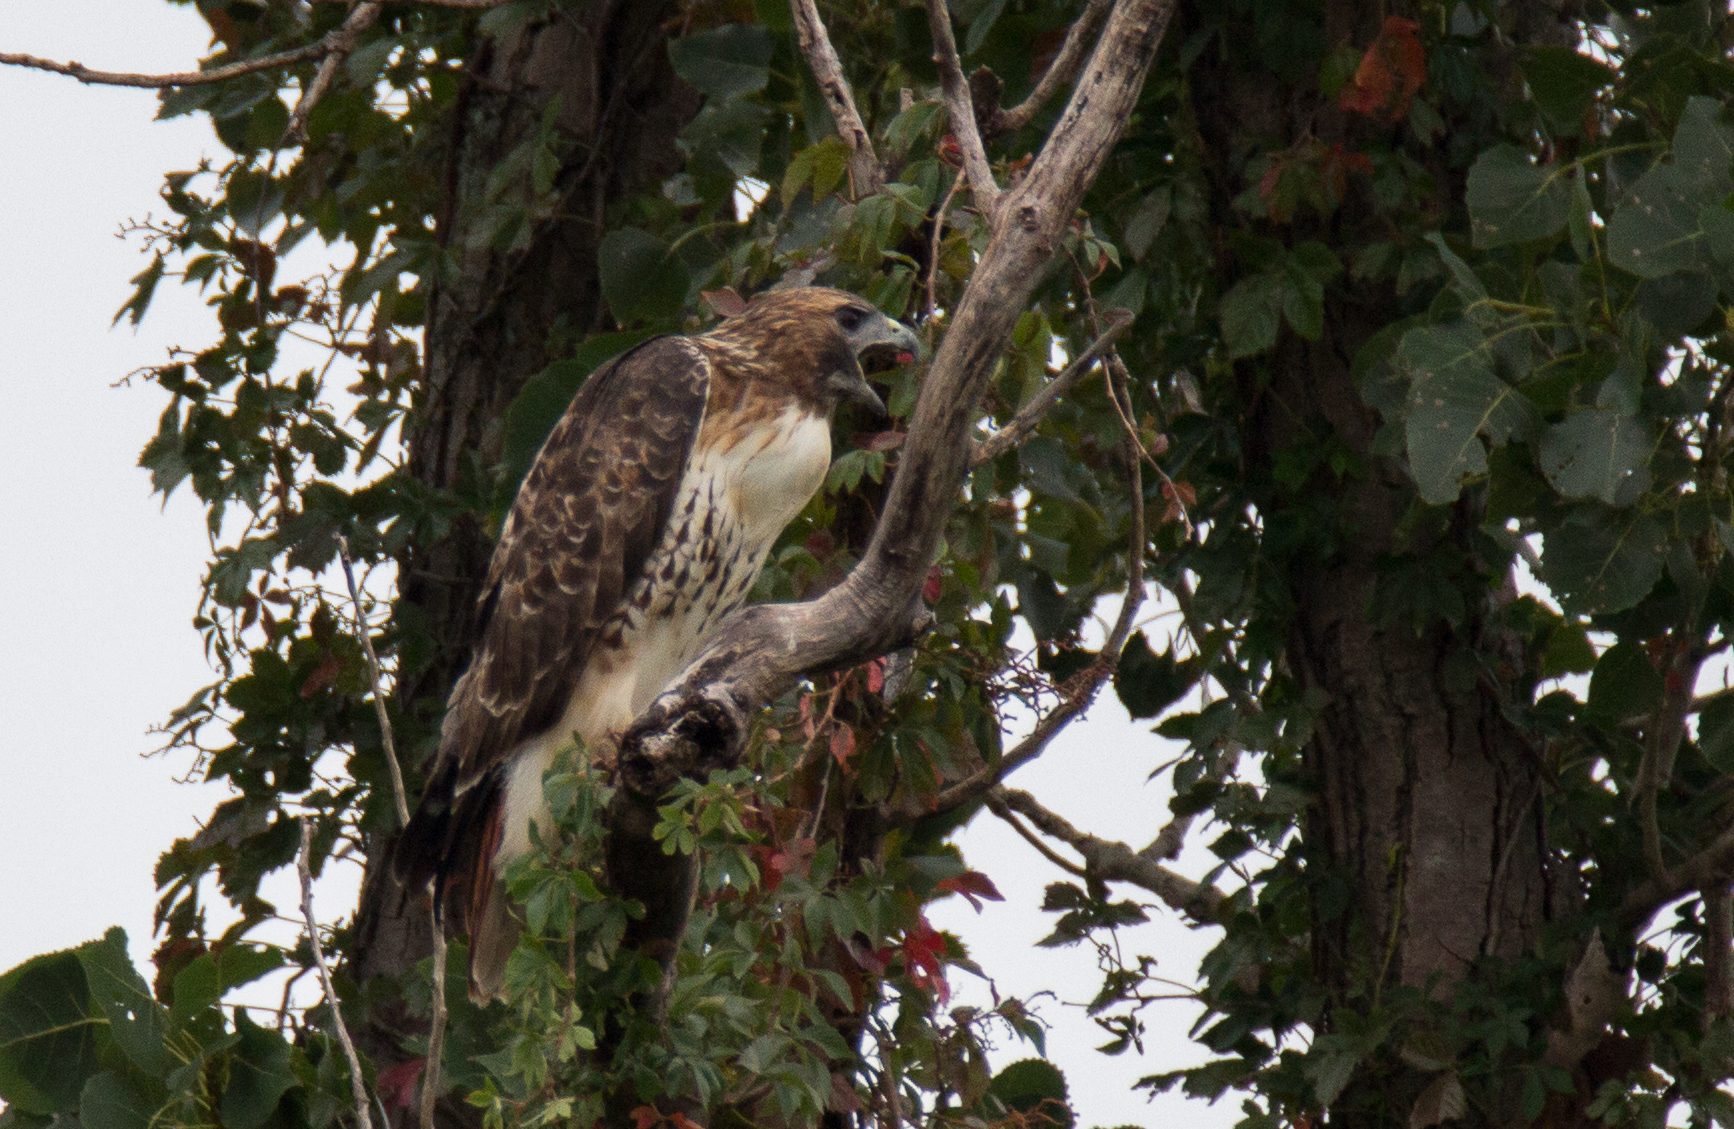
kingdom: Animalia
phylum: Chordata
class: Aves
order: Accipitriformes
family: Accipitridae
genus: Buteo
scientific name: Buteo jamaicensis
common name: Red-tailed hawk
